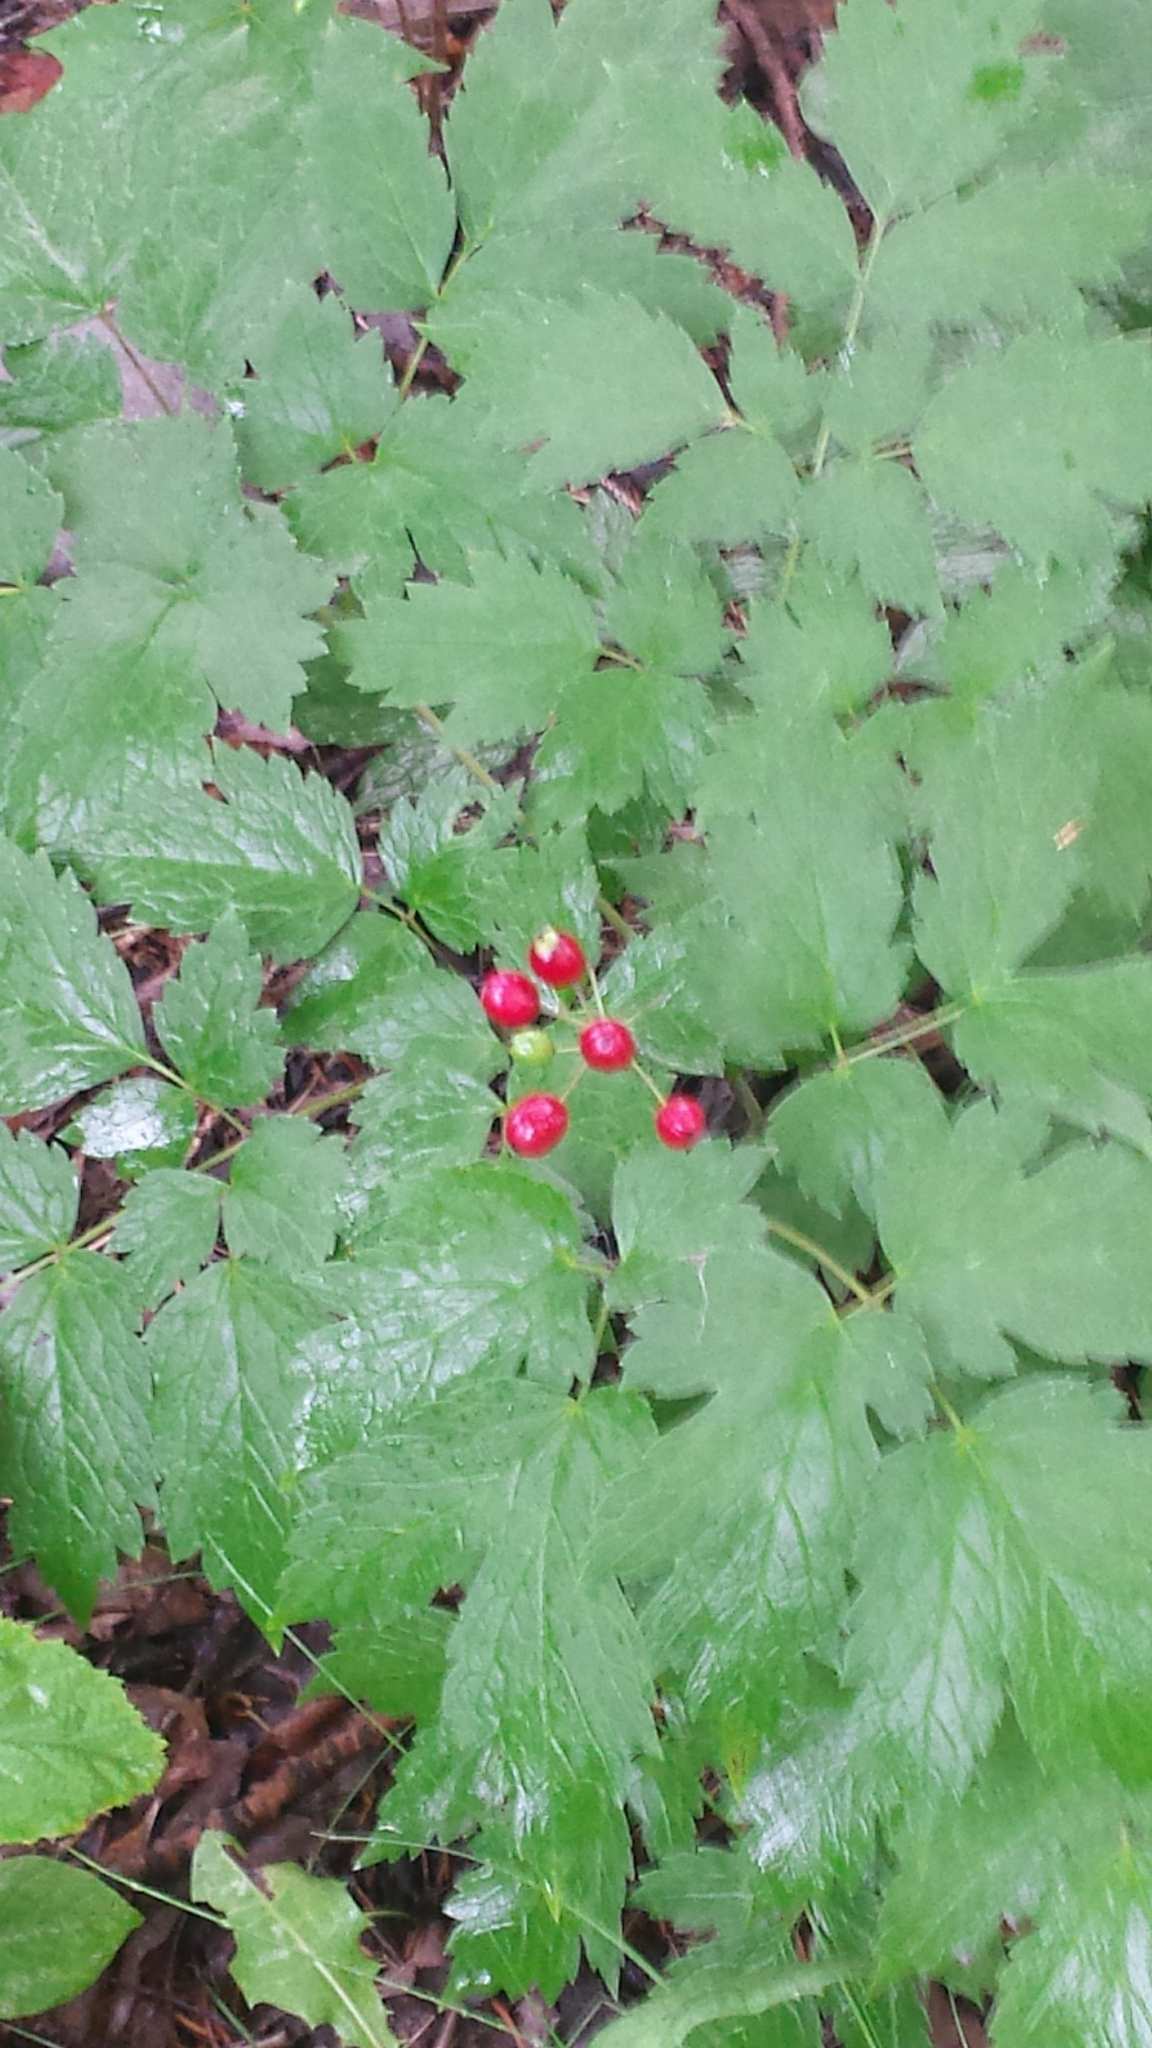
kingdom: Plantae
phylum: Tracheophyta
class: Magnoliopsida
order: Ranunculales
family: Ranunculaceae
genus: Actaea
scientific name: Actaea rubra
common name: Red baneberry
